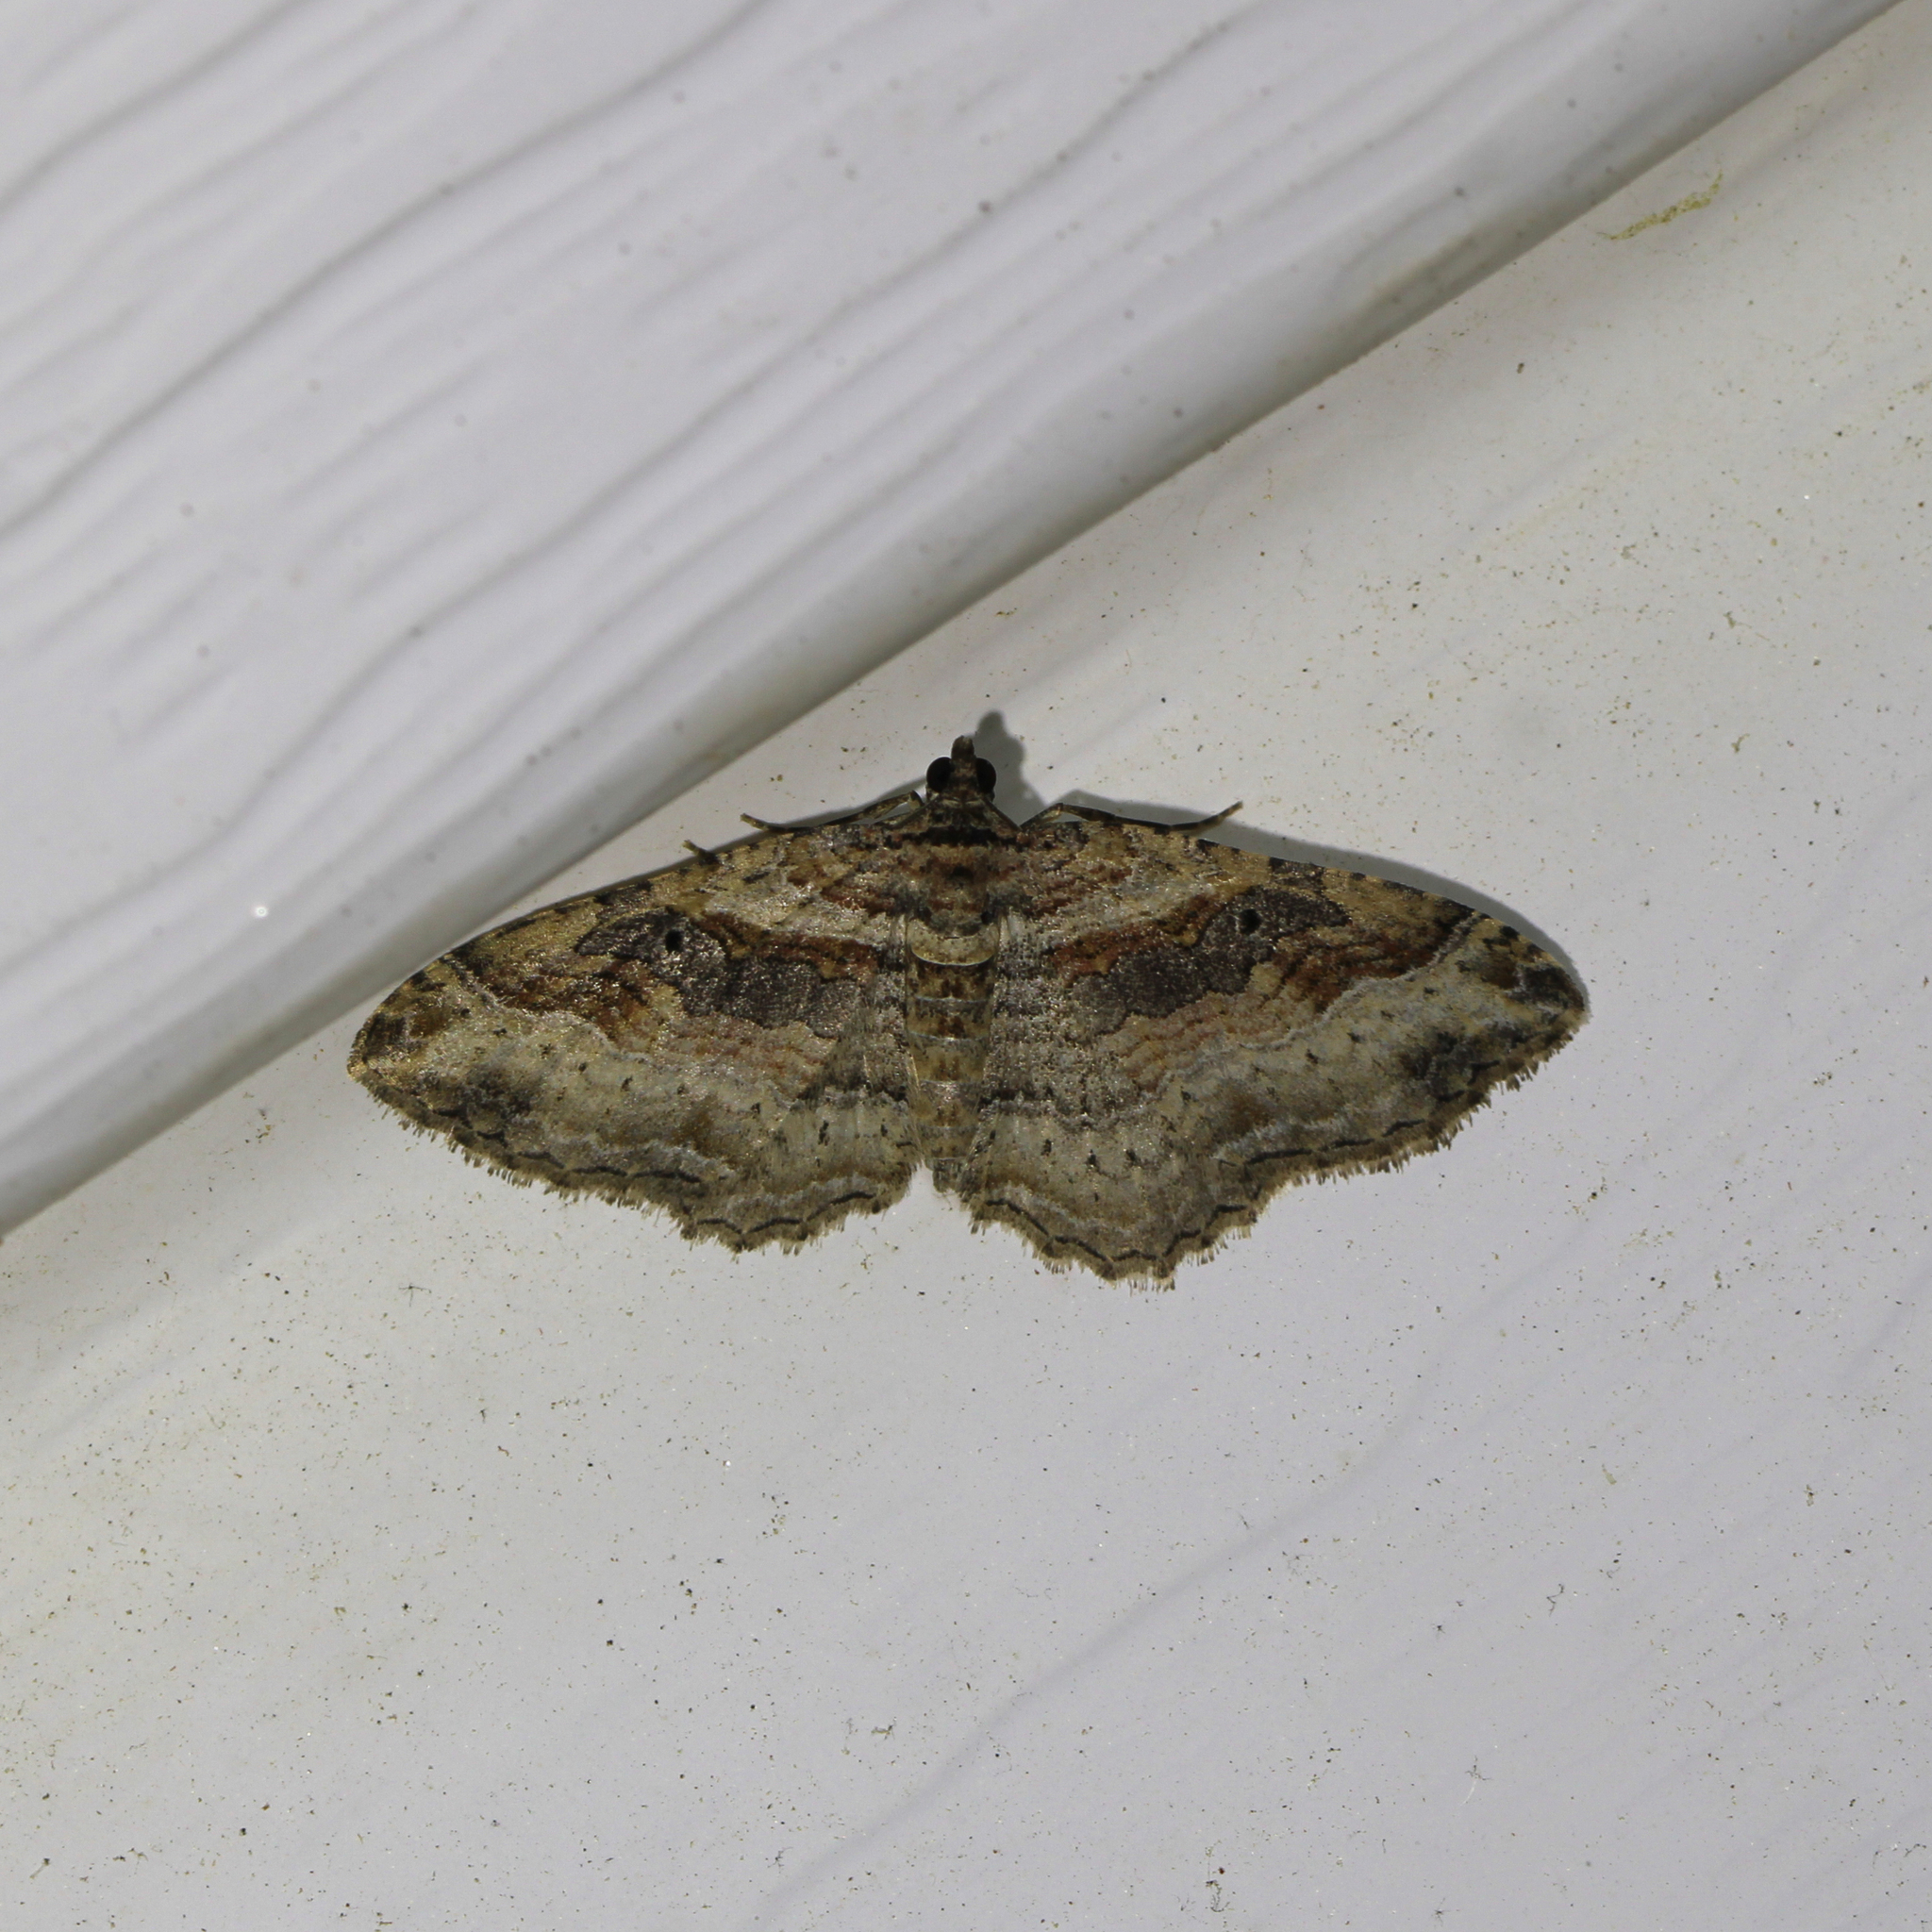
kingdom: Animalia
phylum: Arthropoda
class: Insecta
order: Lepidoptera
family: Geometridae
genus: Costaconvexa
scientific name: Costaconvexa centrostrigaria
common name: Bent-line carpet
